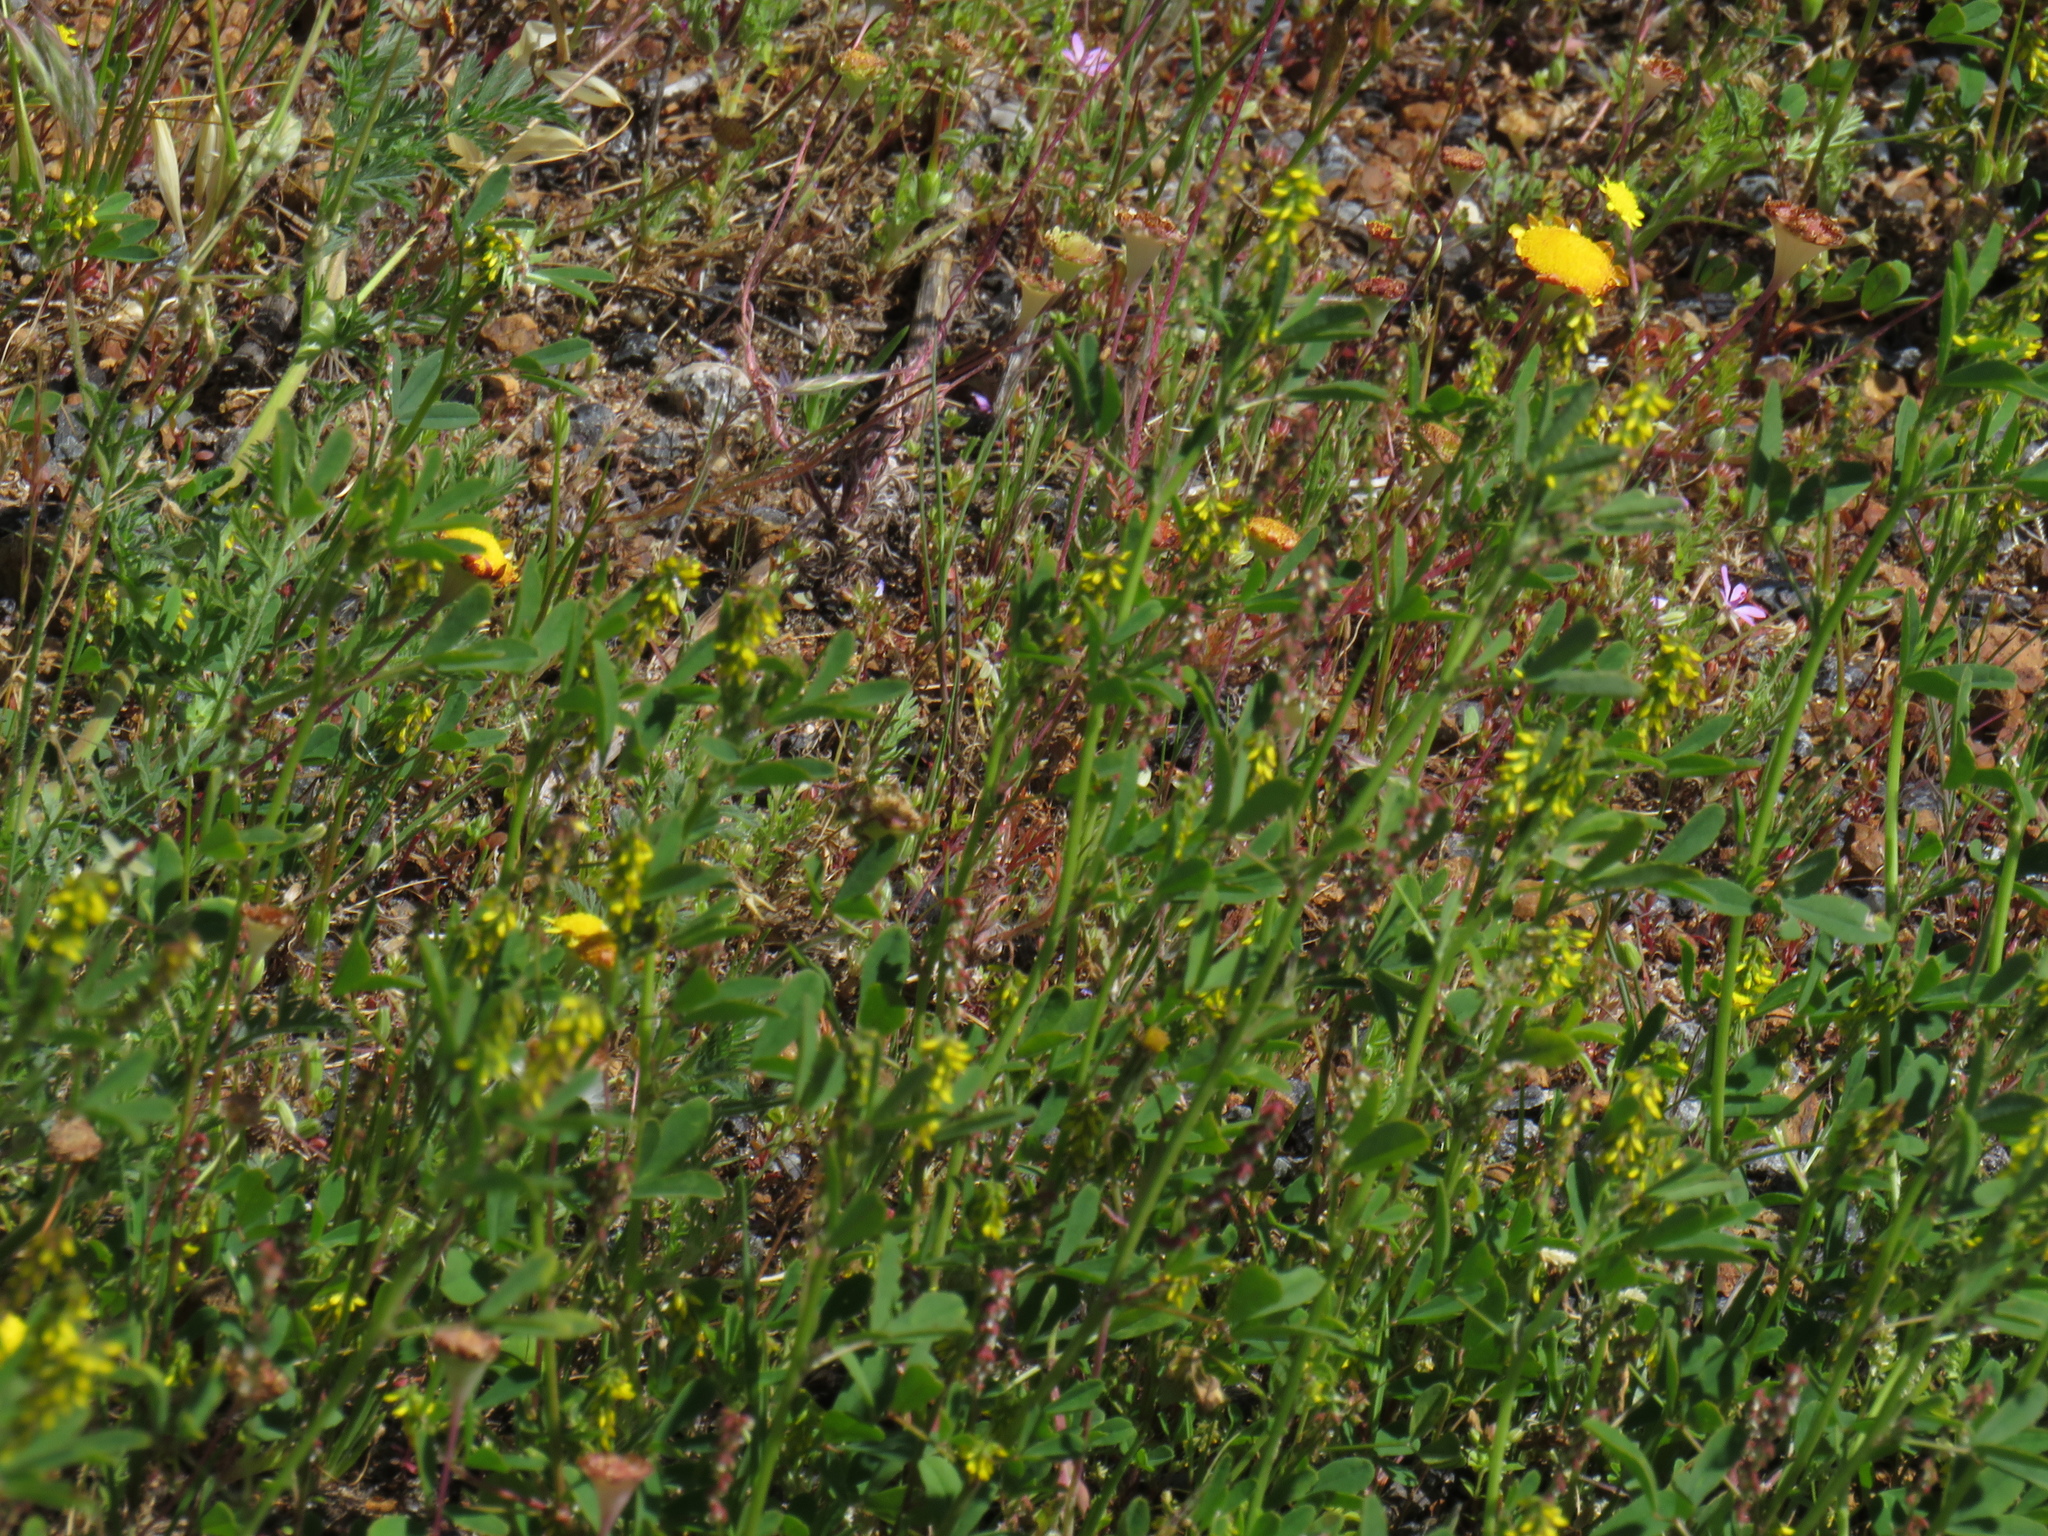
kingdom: Plantae
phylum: Tracheophyta
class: Magnoliopsida
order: Fabales
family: Fabaceae
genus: Melilotus
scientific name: Melilotus indicus
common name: Small melilot
